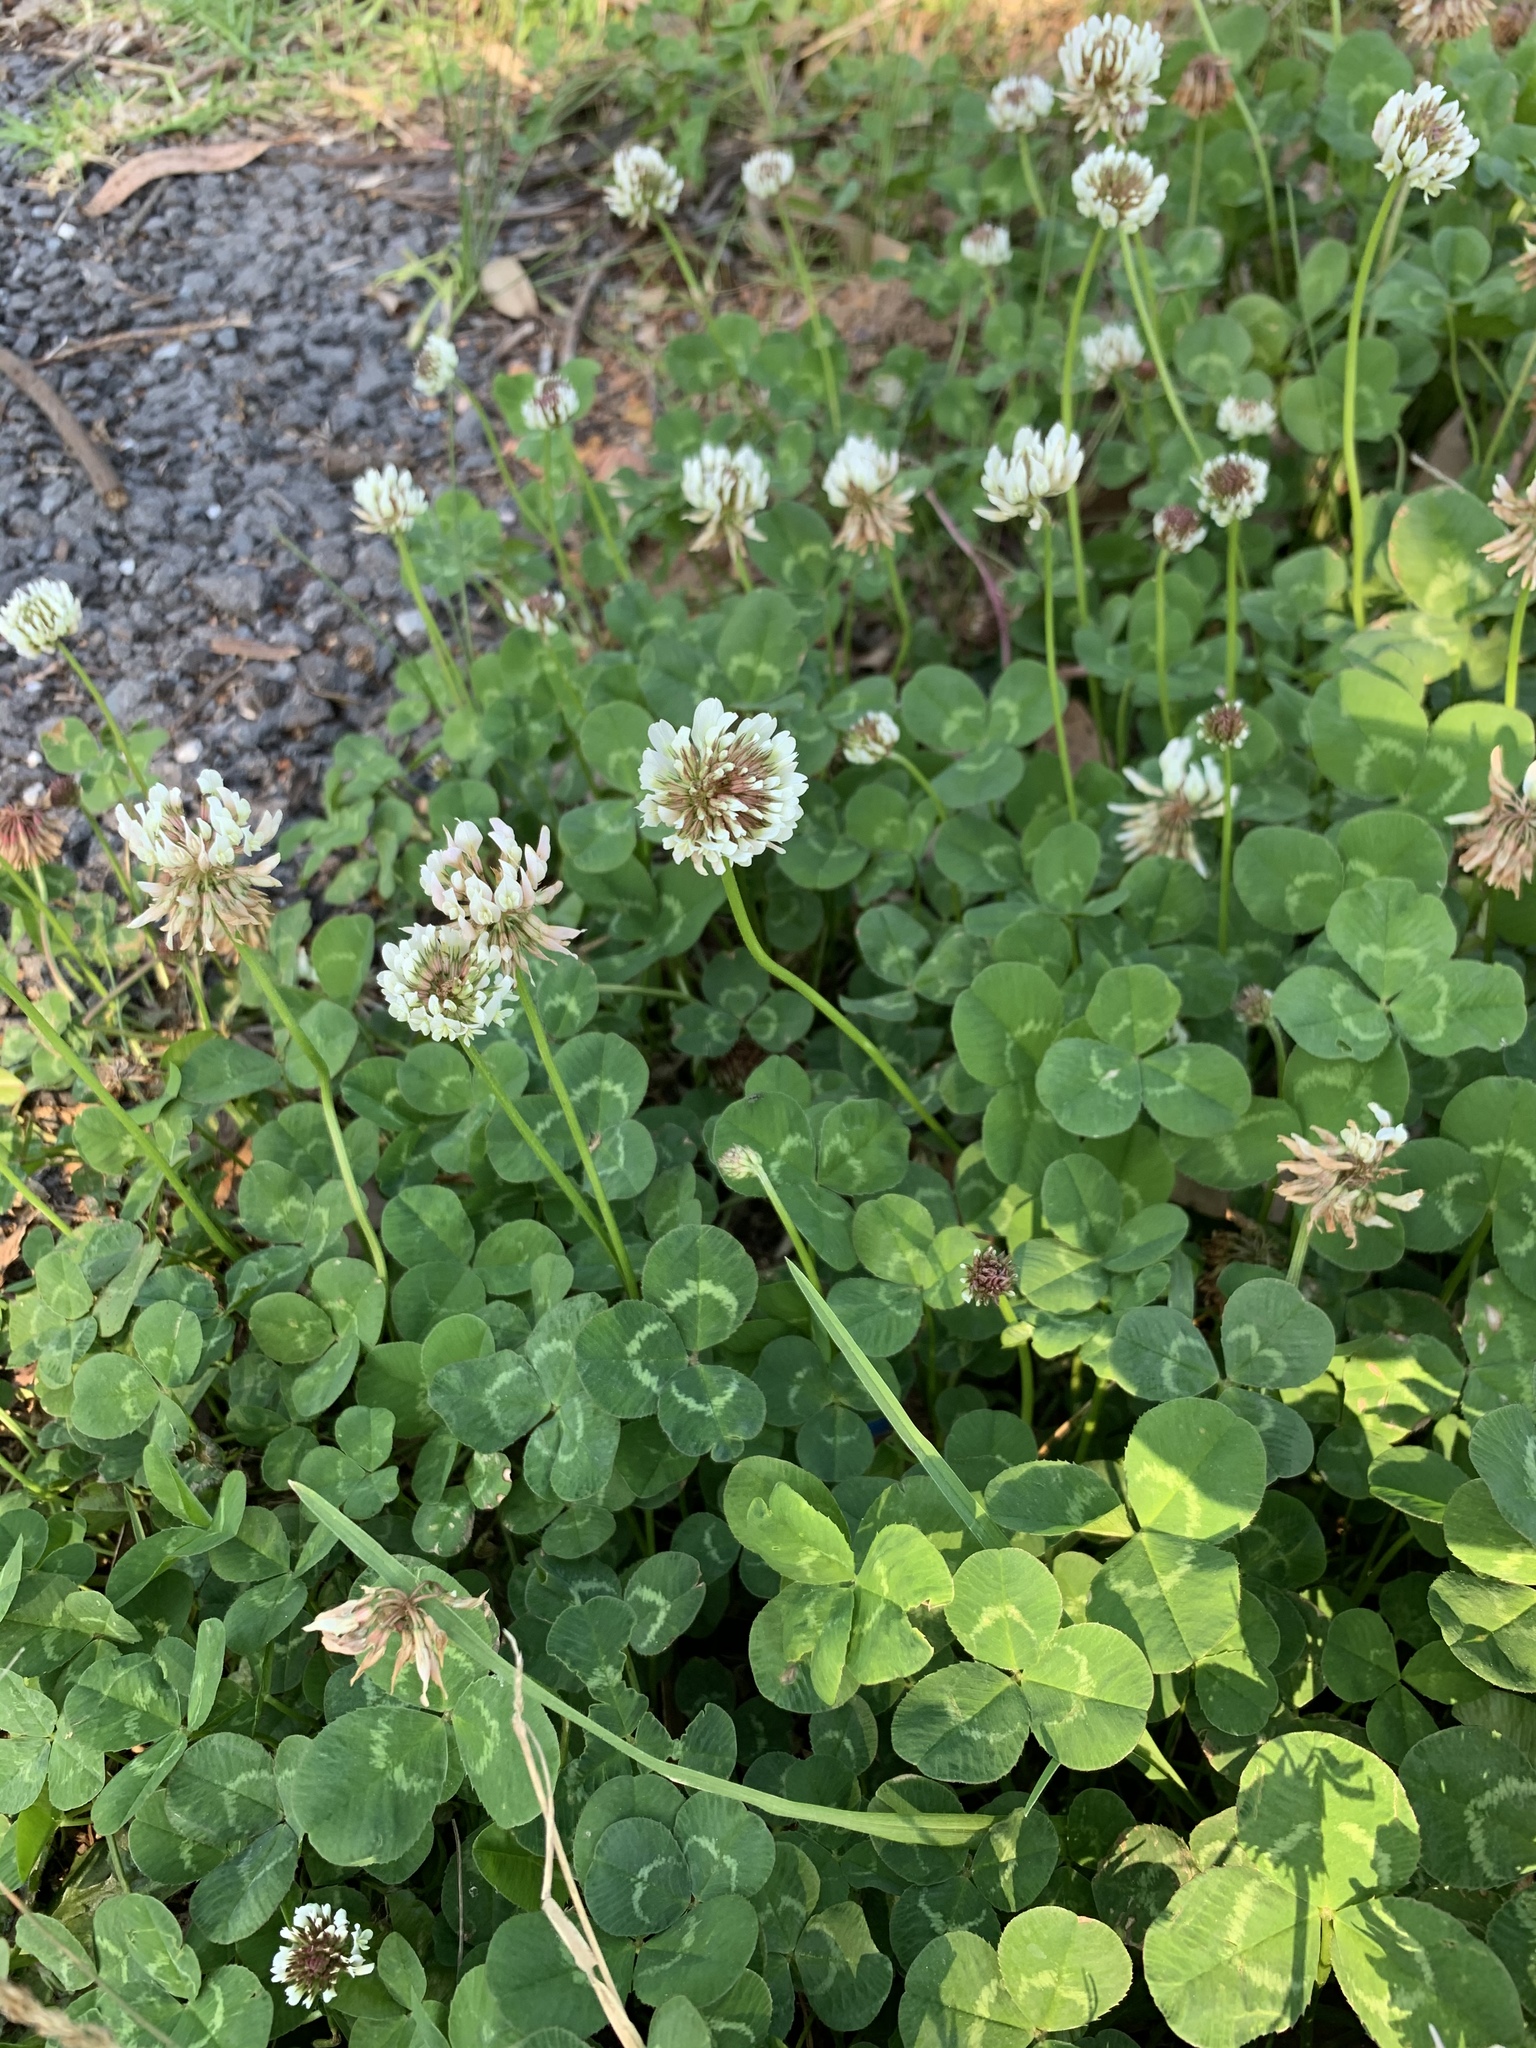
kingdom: Plantae
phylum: Tracheophyta
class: Magnoliopsida
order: Fabales
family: Fabaceae
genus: Trifolium
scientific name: Trifolium repens
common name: White clover
